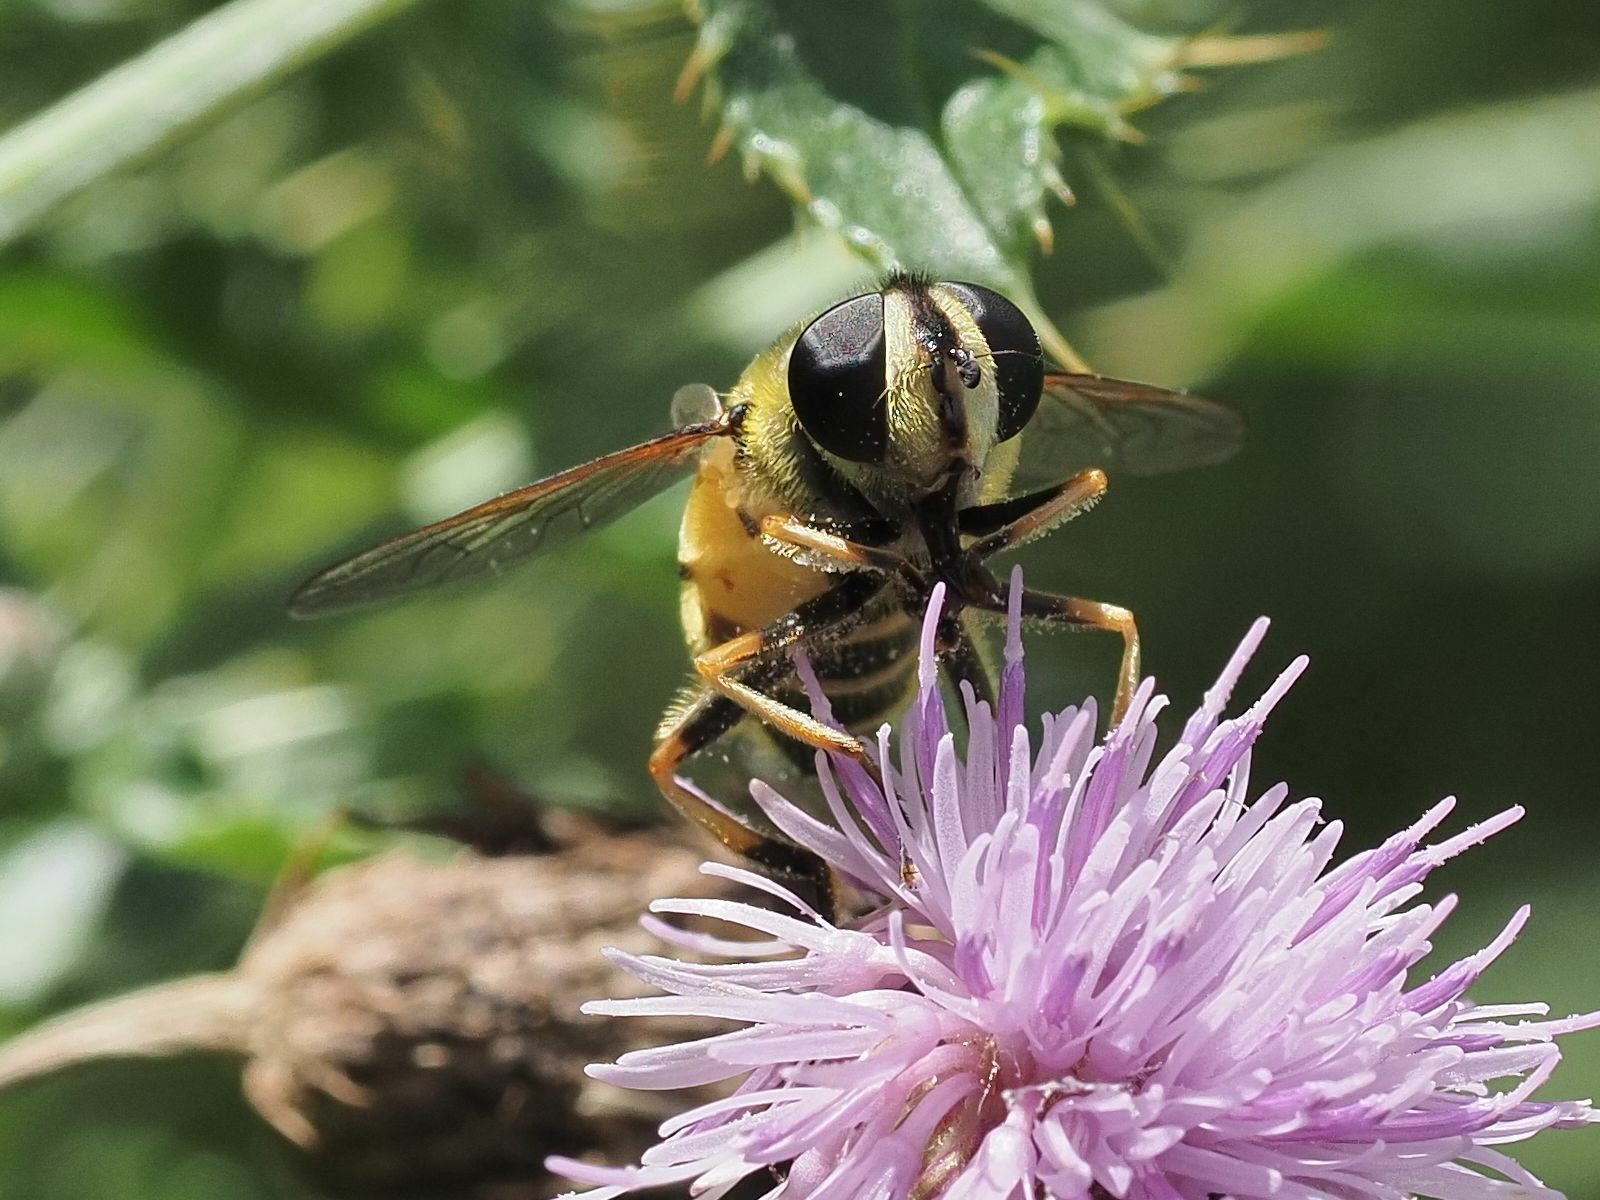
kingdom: Animalia
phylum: Arthropoda
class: Insecta
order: Diptera
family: Syrphidae
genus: Myathropa
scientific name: Myathropa florea
